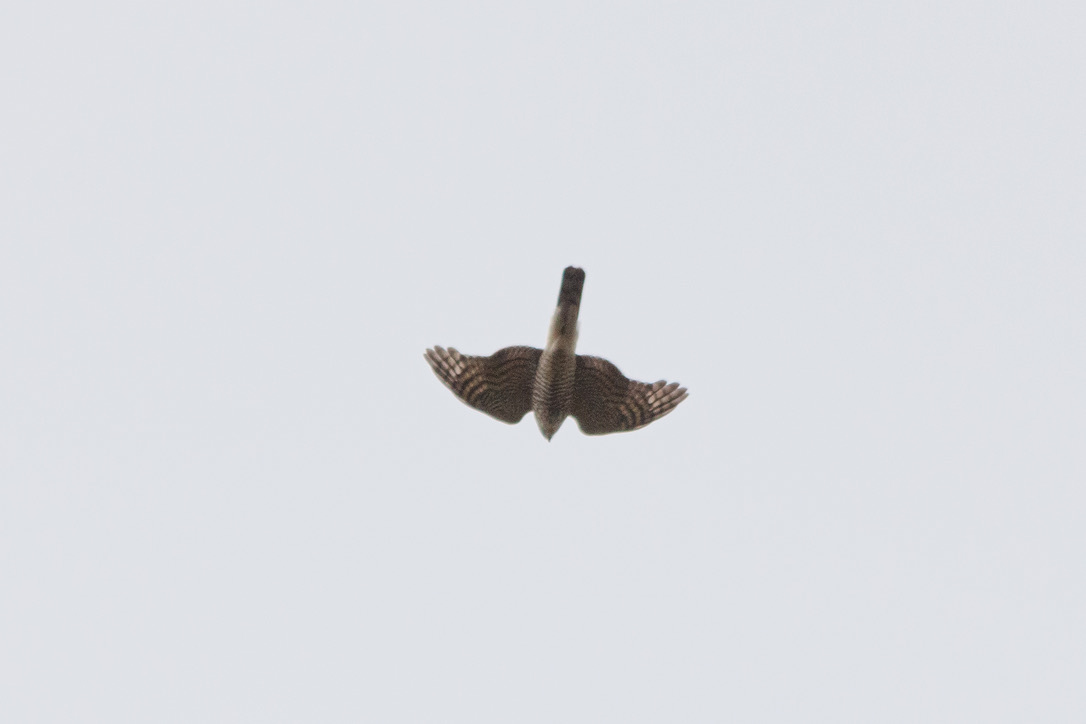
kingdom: Animalia
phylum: Chordata
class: Aves
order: Accipitriformes
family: Accipitridae
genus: Accipiter
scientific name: Accipiter nisus
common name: Eurasian sparrowhawk
